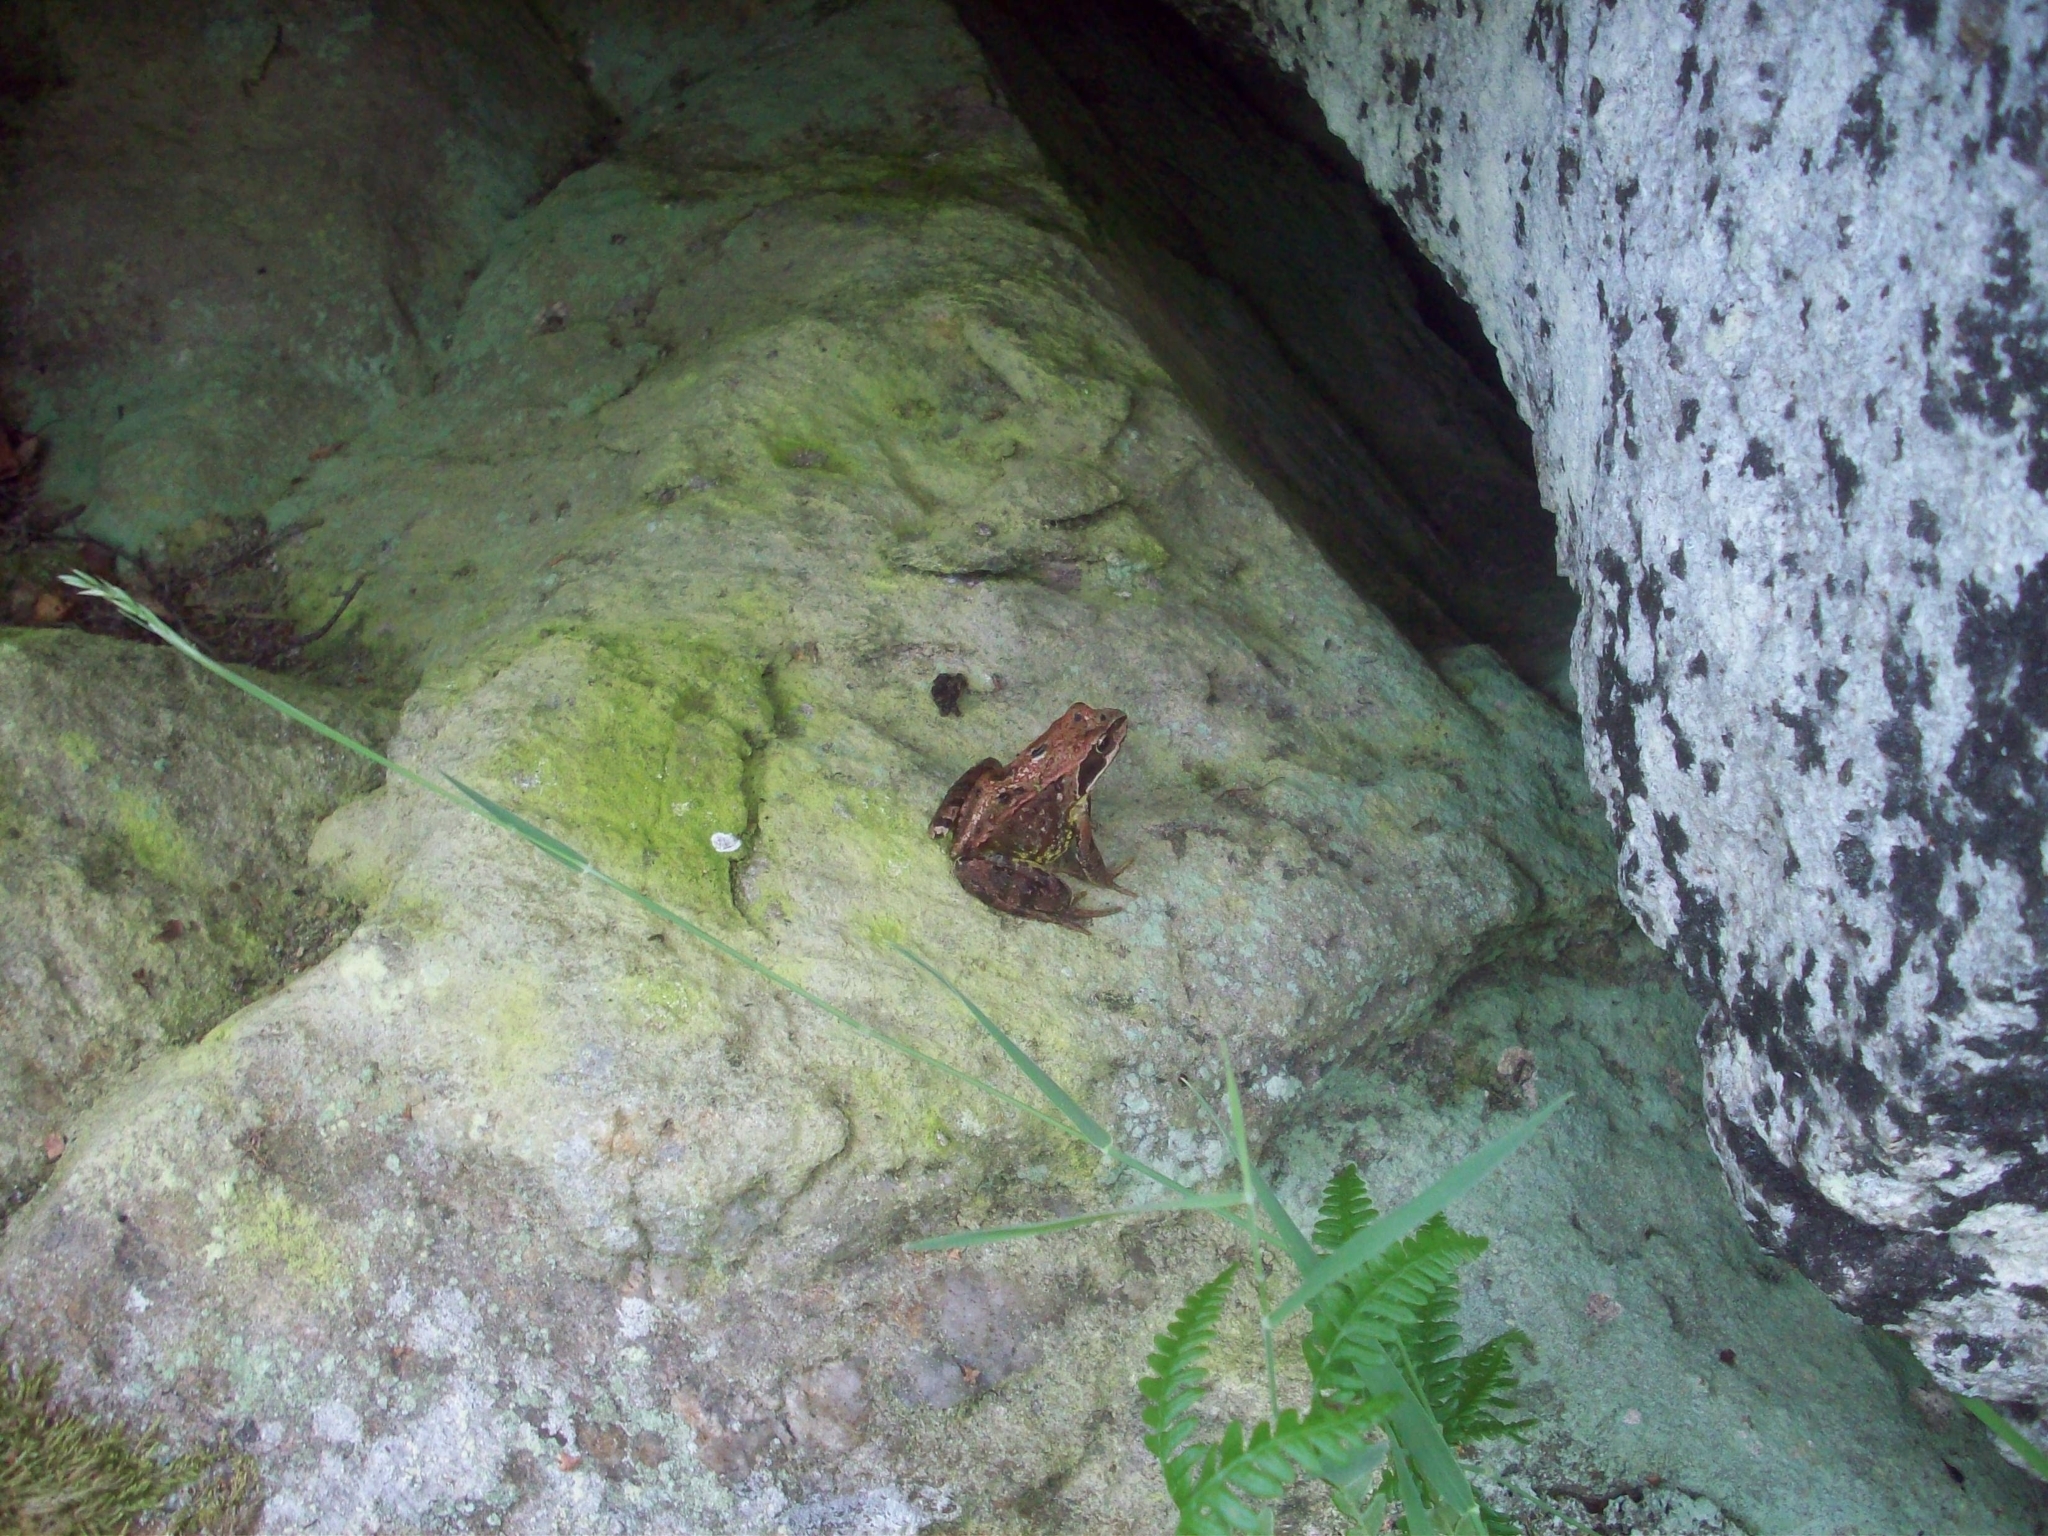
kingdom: Animalia
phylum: Chordata
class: Amphibia
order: Anura
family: Ranidae
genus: Rana
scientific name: Rana temporaria
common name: Common frog
